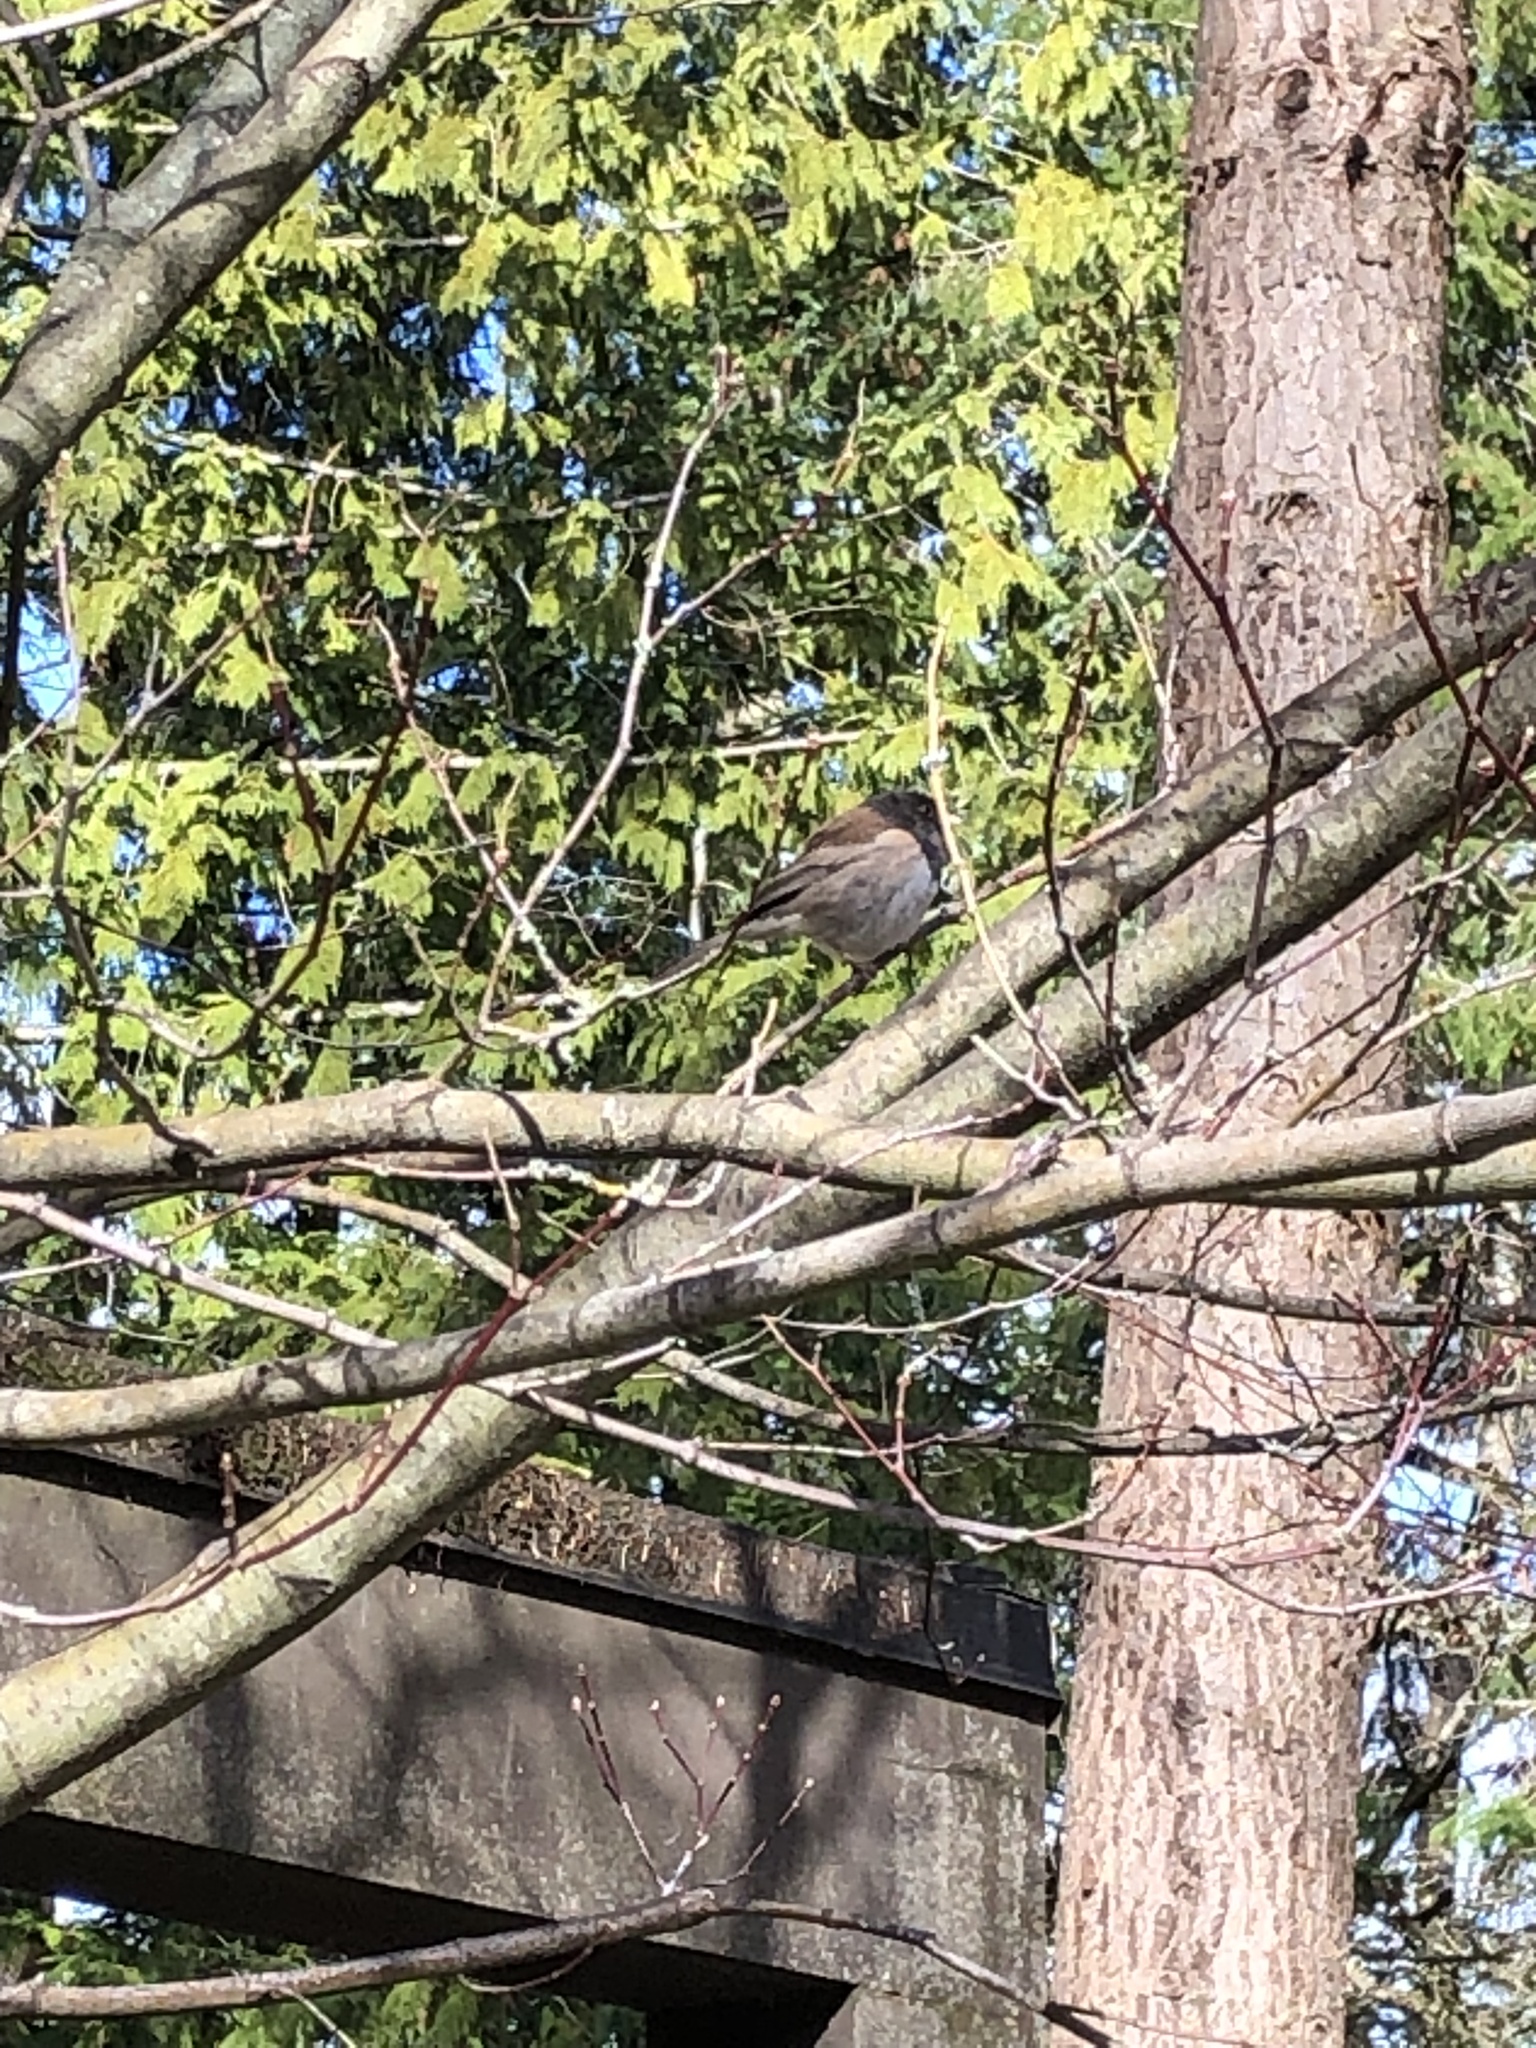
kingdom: Animalia
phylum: Chordata
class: Aves
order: Passeriformes
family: Passerellidae
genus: Junco
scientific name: Junco hyemalis
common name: Dark-eyed junco
